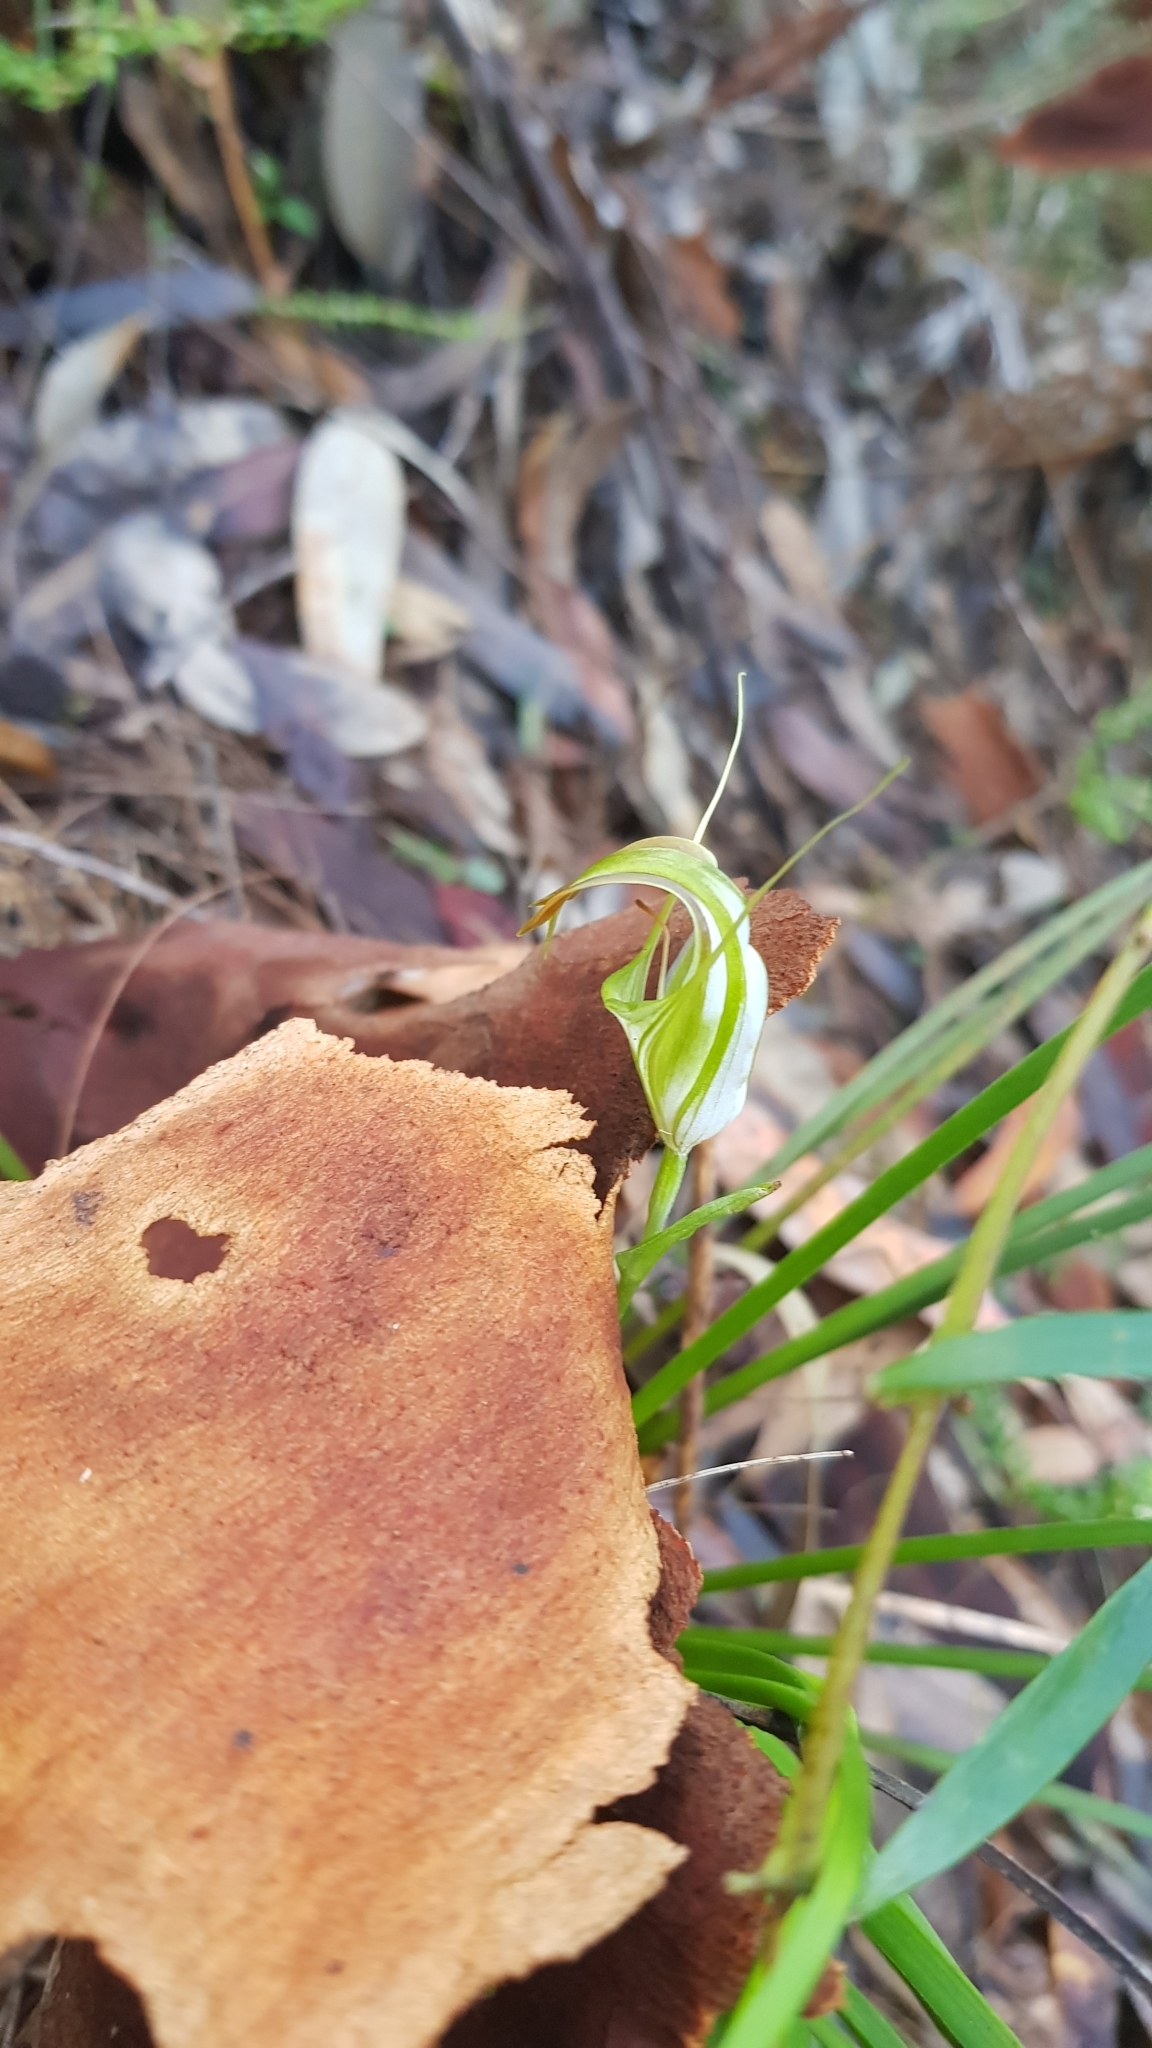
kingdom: Plantae
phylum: Tracheophyta
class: Liliopsida
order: Asparagales
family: Orchidaceae
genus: Pterostylis
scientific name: Pterostylis grandiflora
